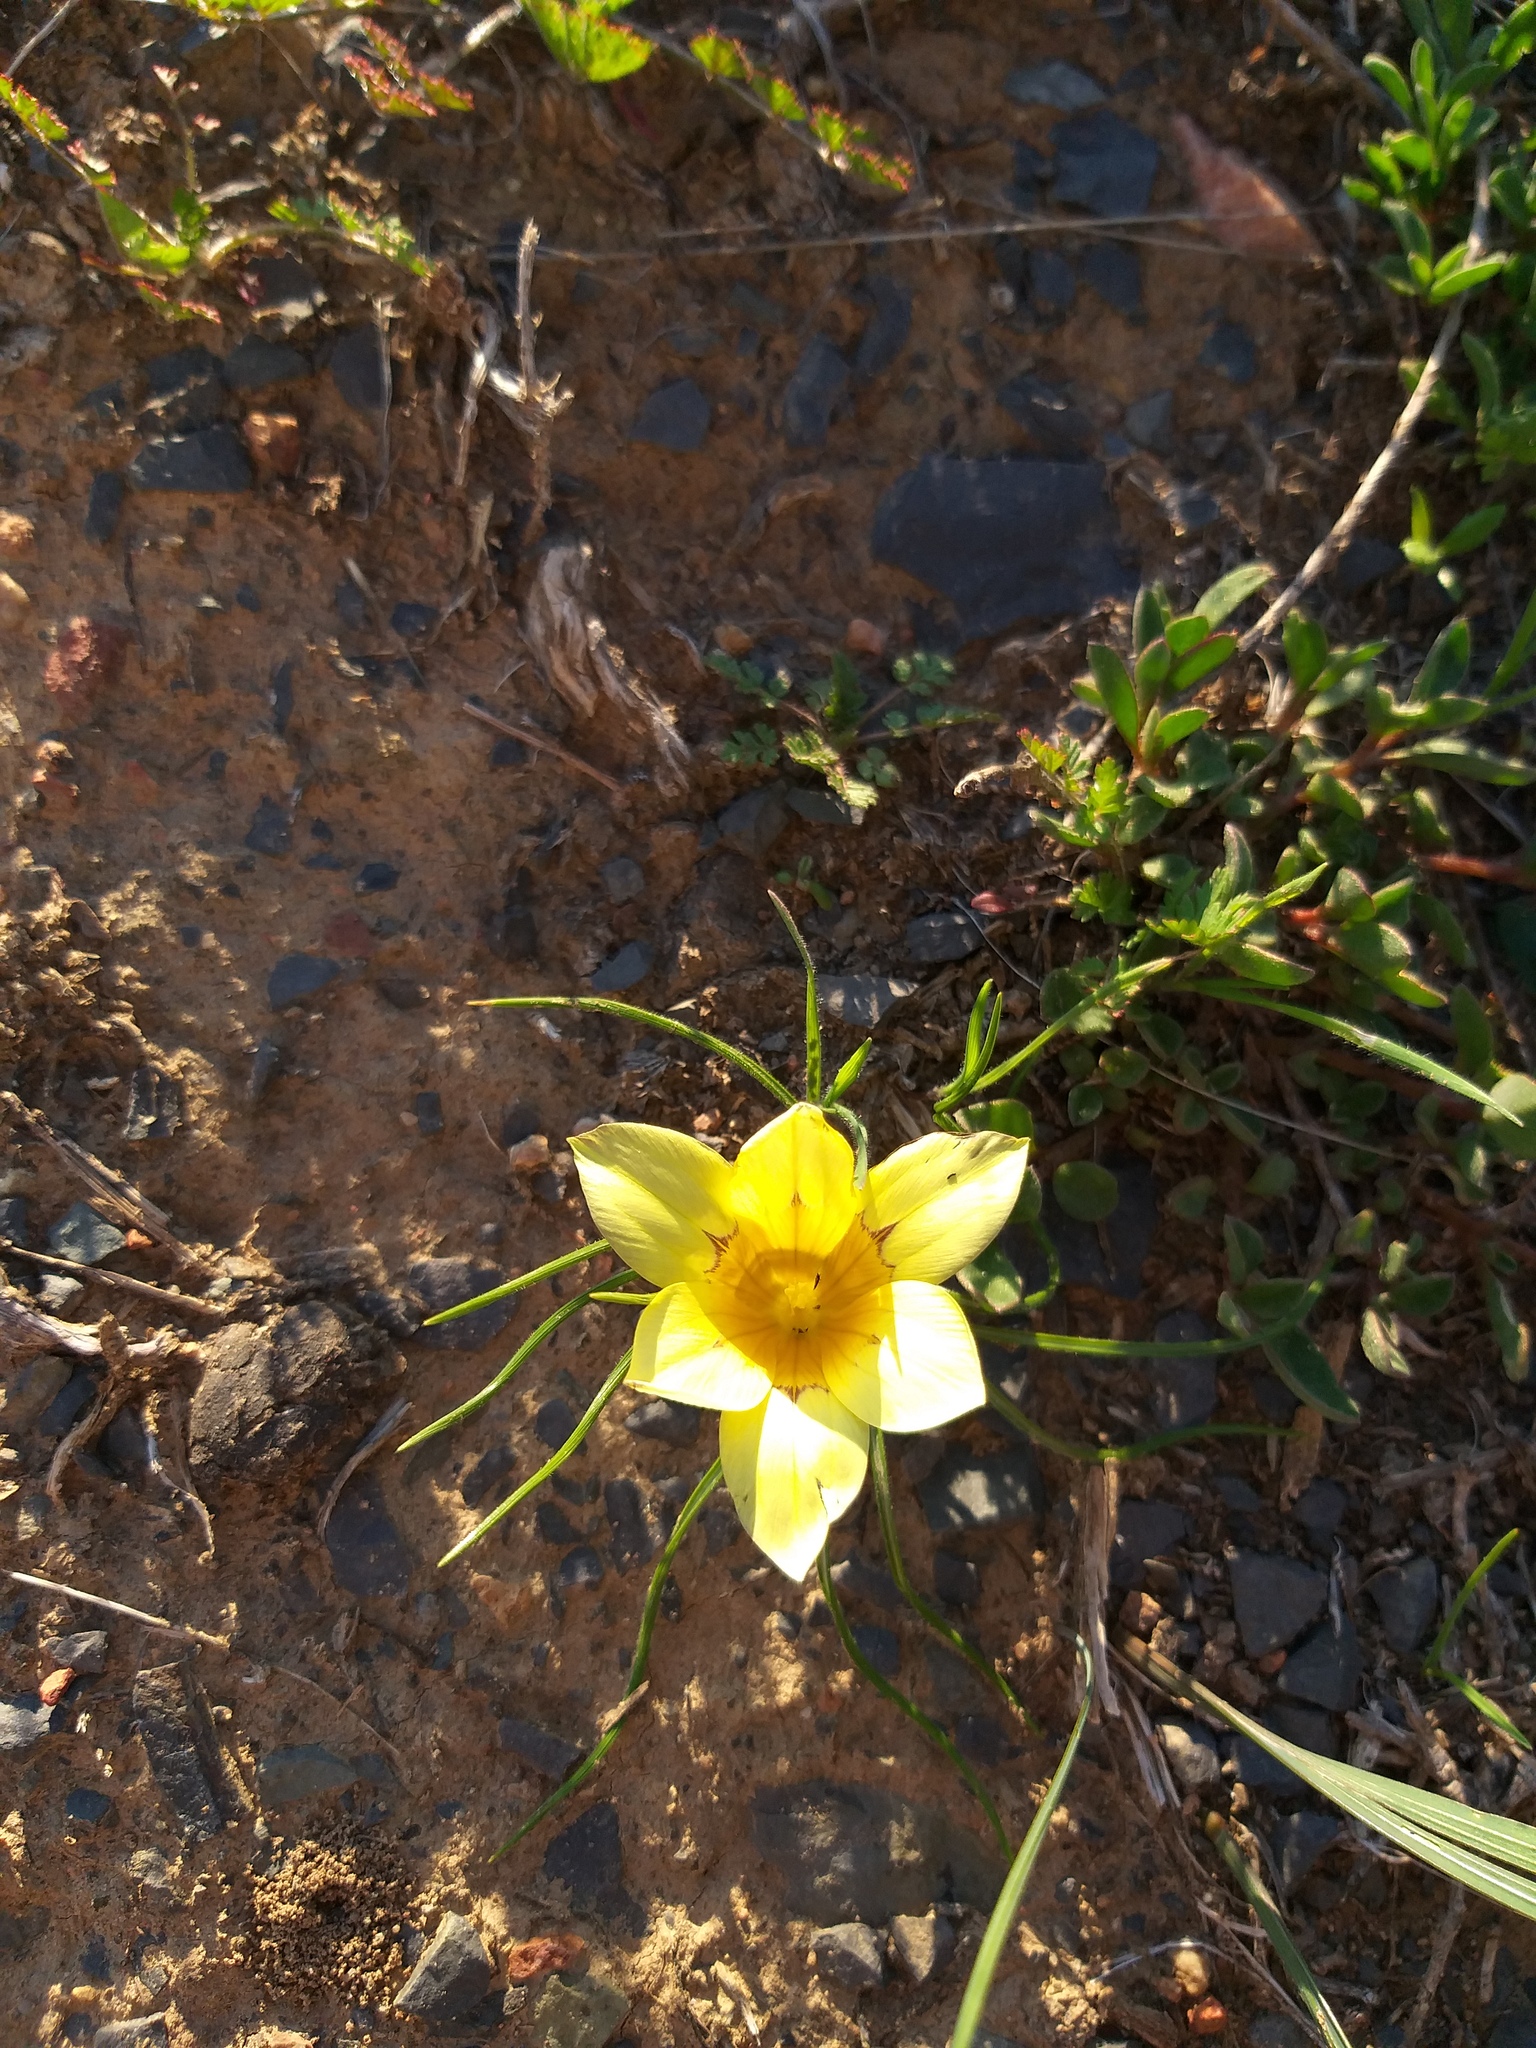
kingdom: Plantae
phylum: Tracheophyta
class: Liliopsida
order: Asparagales
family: Iridaceae
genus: Romulea
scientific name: Romulea tortuosa
